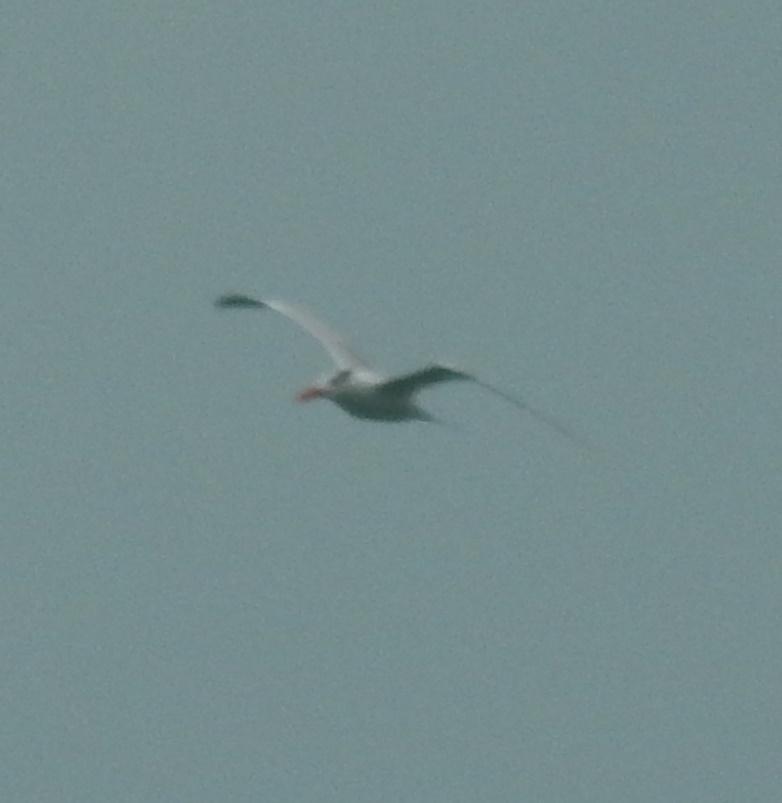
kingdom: Animalia
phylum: Chordata
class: Aves
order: Charadriiformes
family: Laridae
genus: Thalasseus
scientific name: Thalasseus maximus
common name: Royal tern
